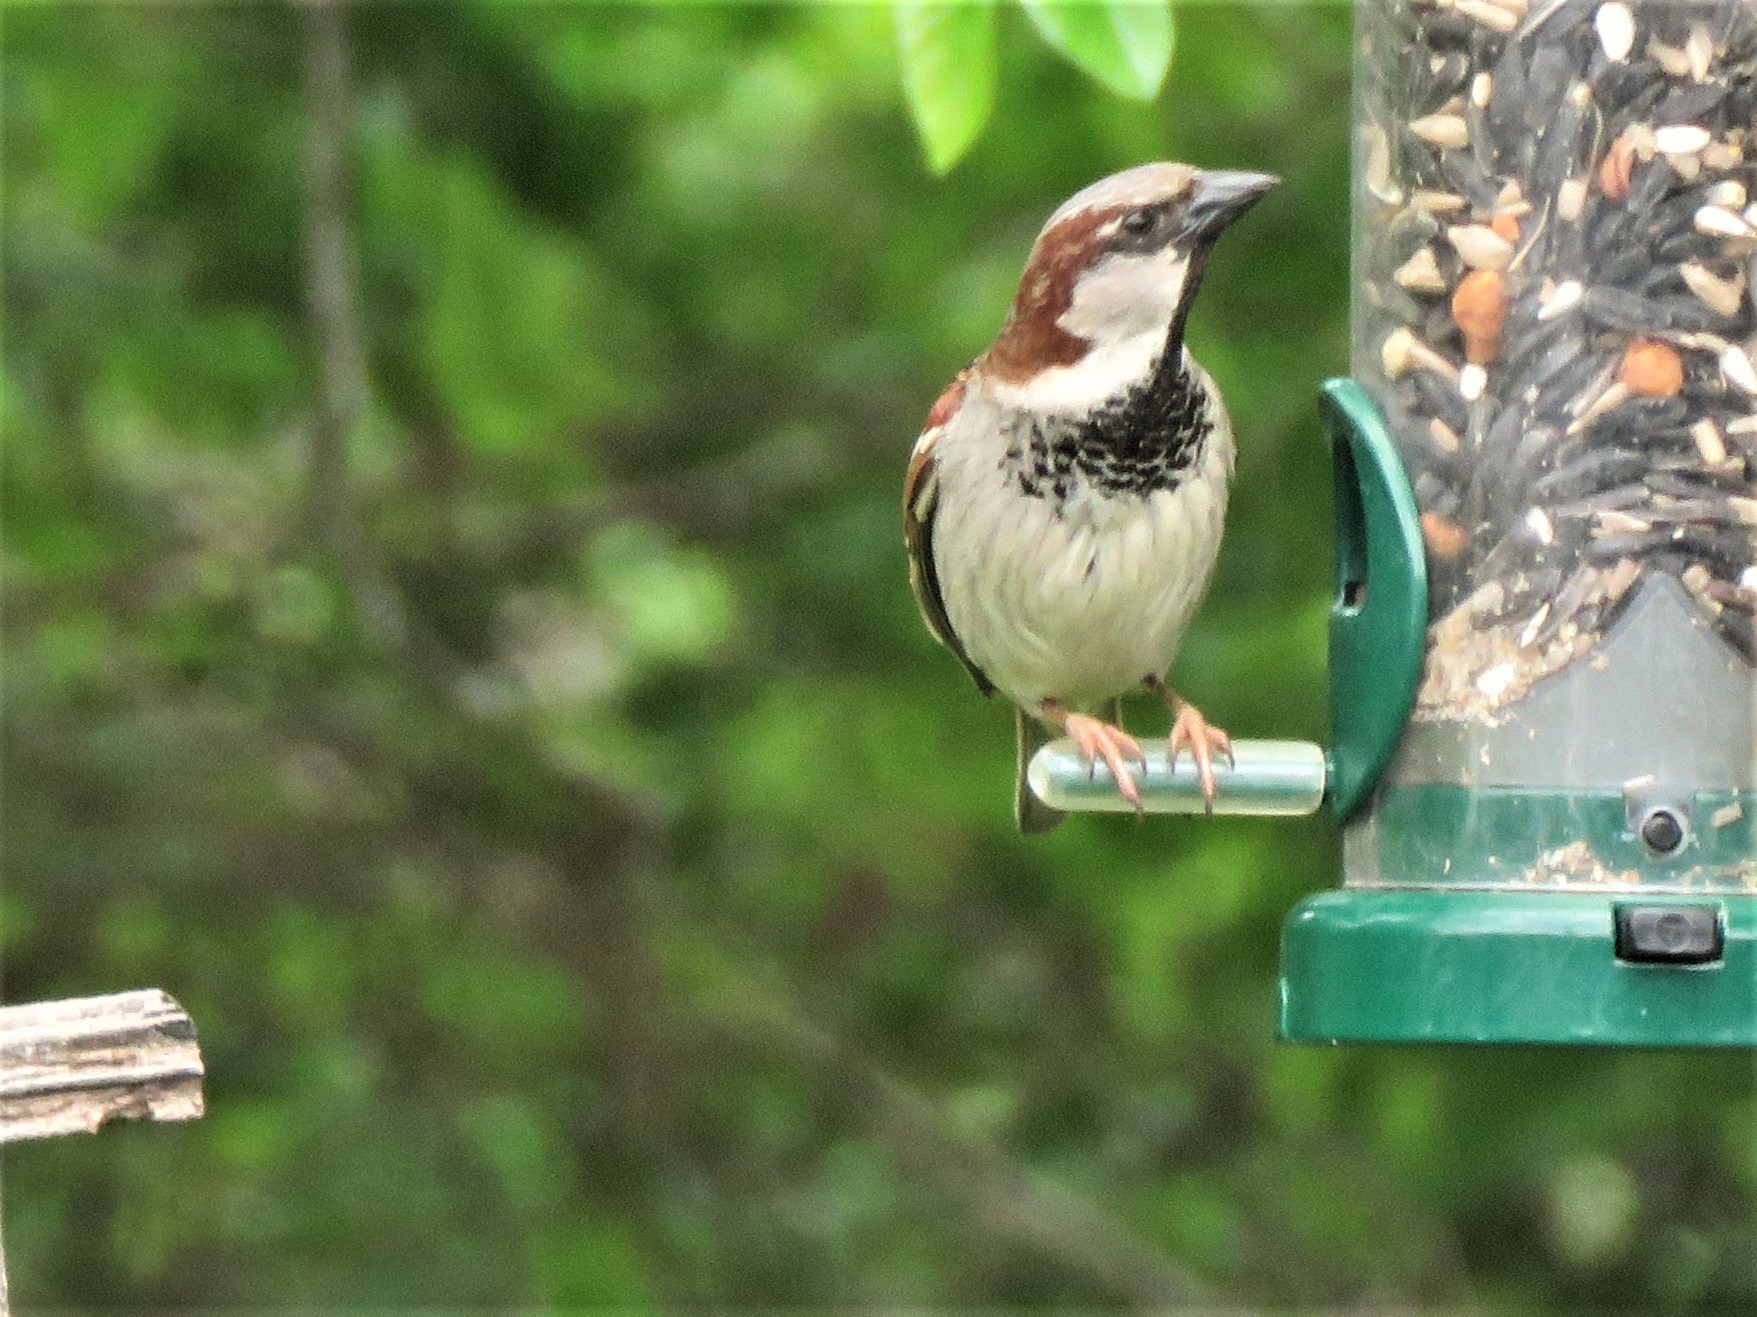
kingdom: Animalia
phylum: Chordata
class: Aves
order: Passeriformes
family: Passeridae
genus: Passer
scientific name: Passer domesticus
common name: House sparrow
